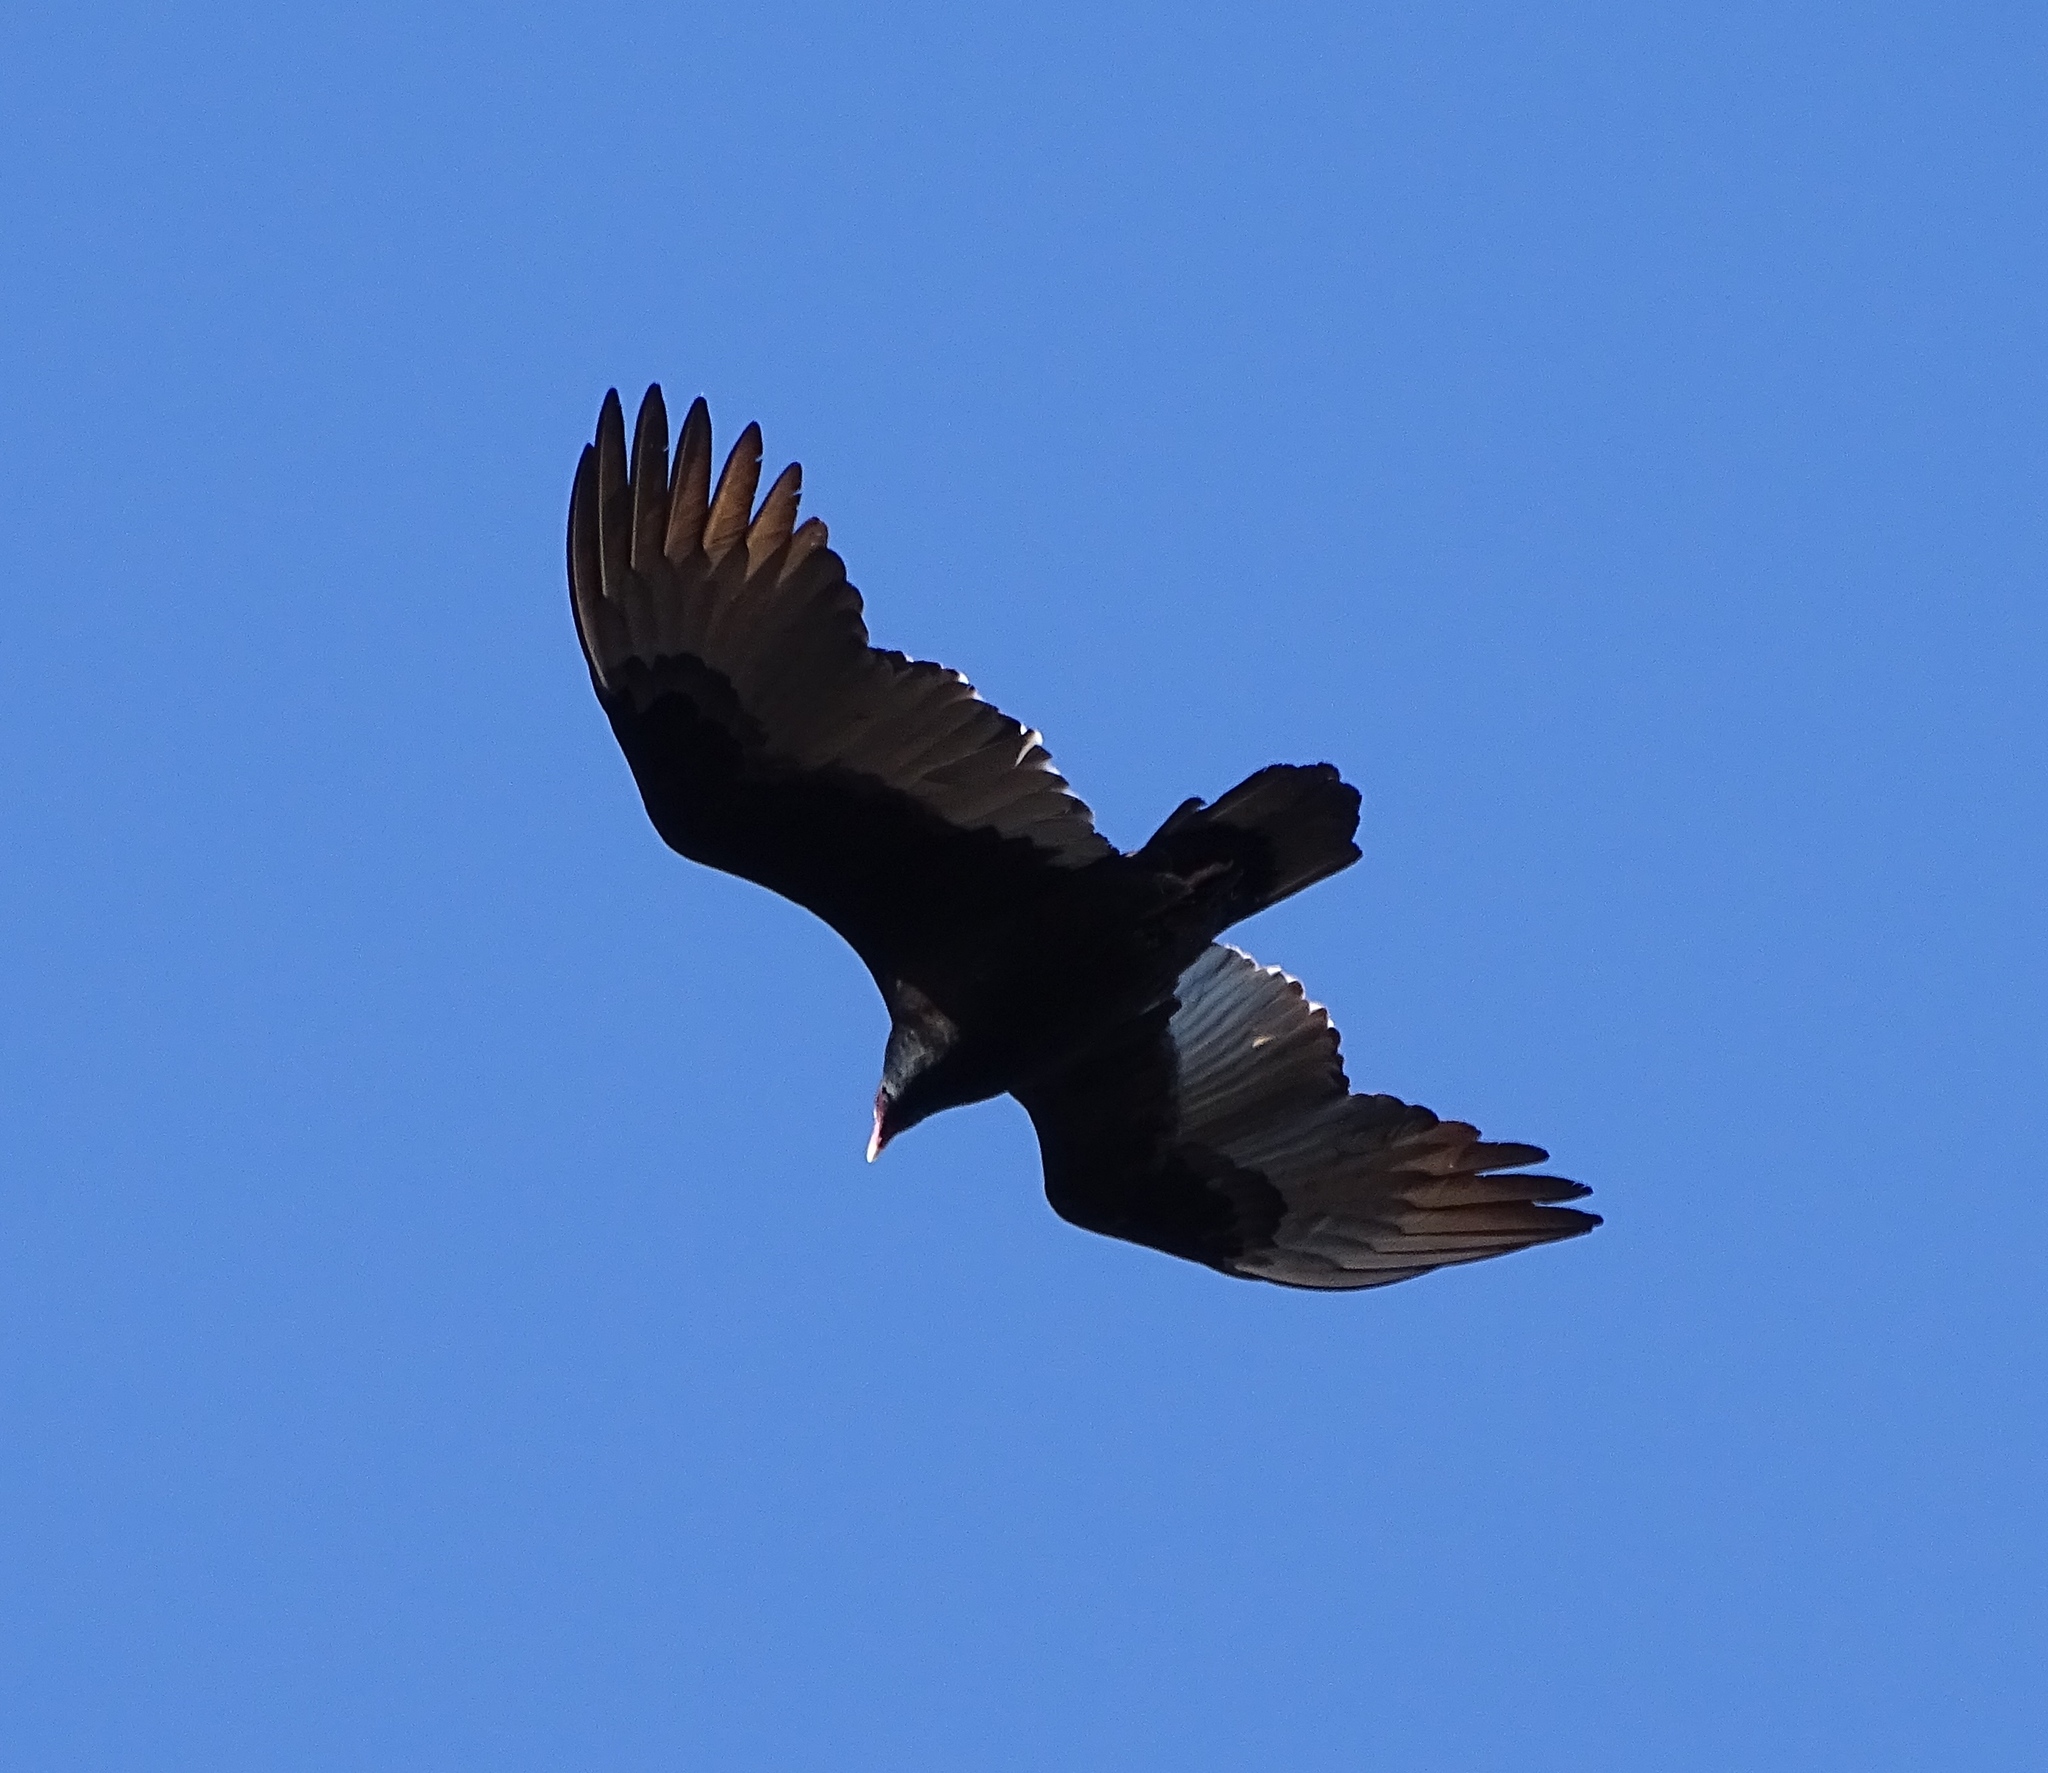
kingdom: Animalia
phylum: Chordata
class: Aves
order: Accipitriformes
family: Cathartidae
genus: Cathartes
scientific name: Cathartes aura
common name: Turkey vulture
